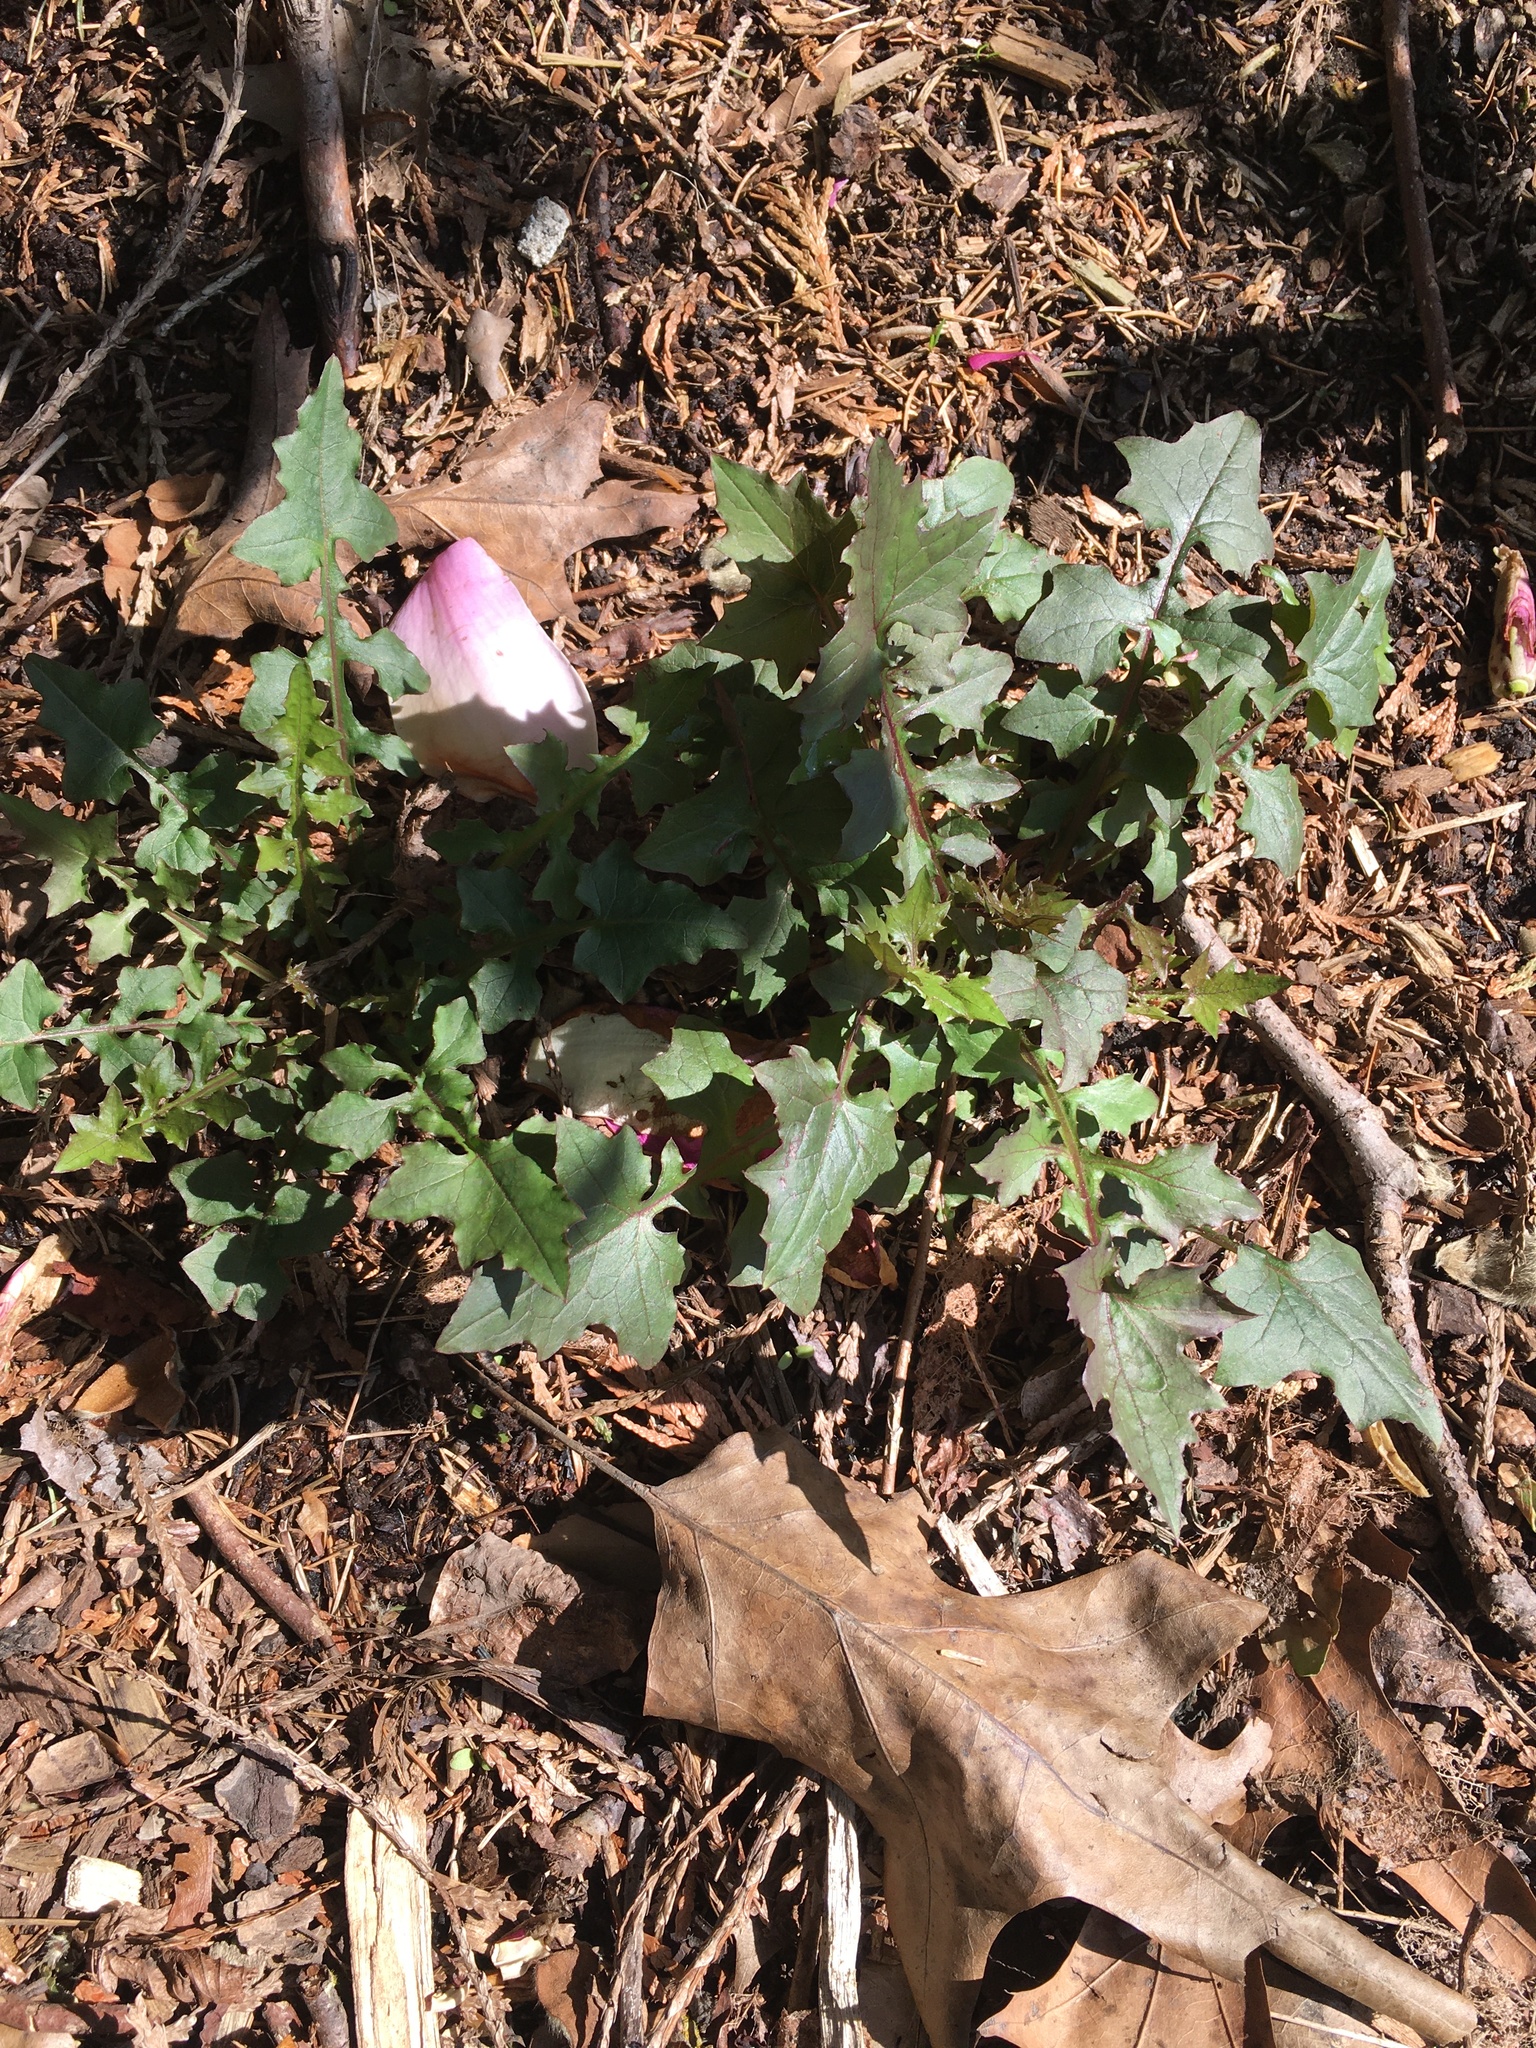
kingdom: Plantae
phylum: Tracheophyta
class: Magnoliopsida
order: Asterales
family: Asteraceae
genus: Mycelis
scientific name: Mycelis muralis
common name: Wall lettuce
